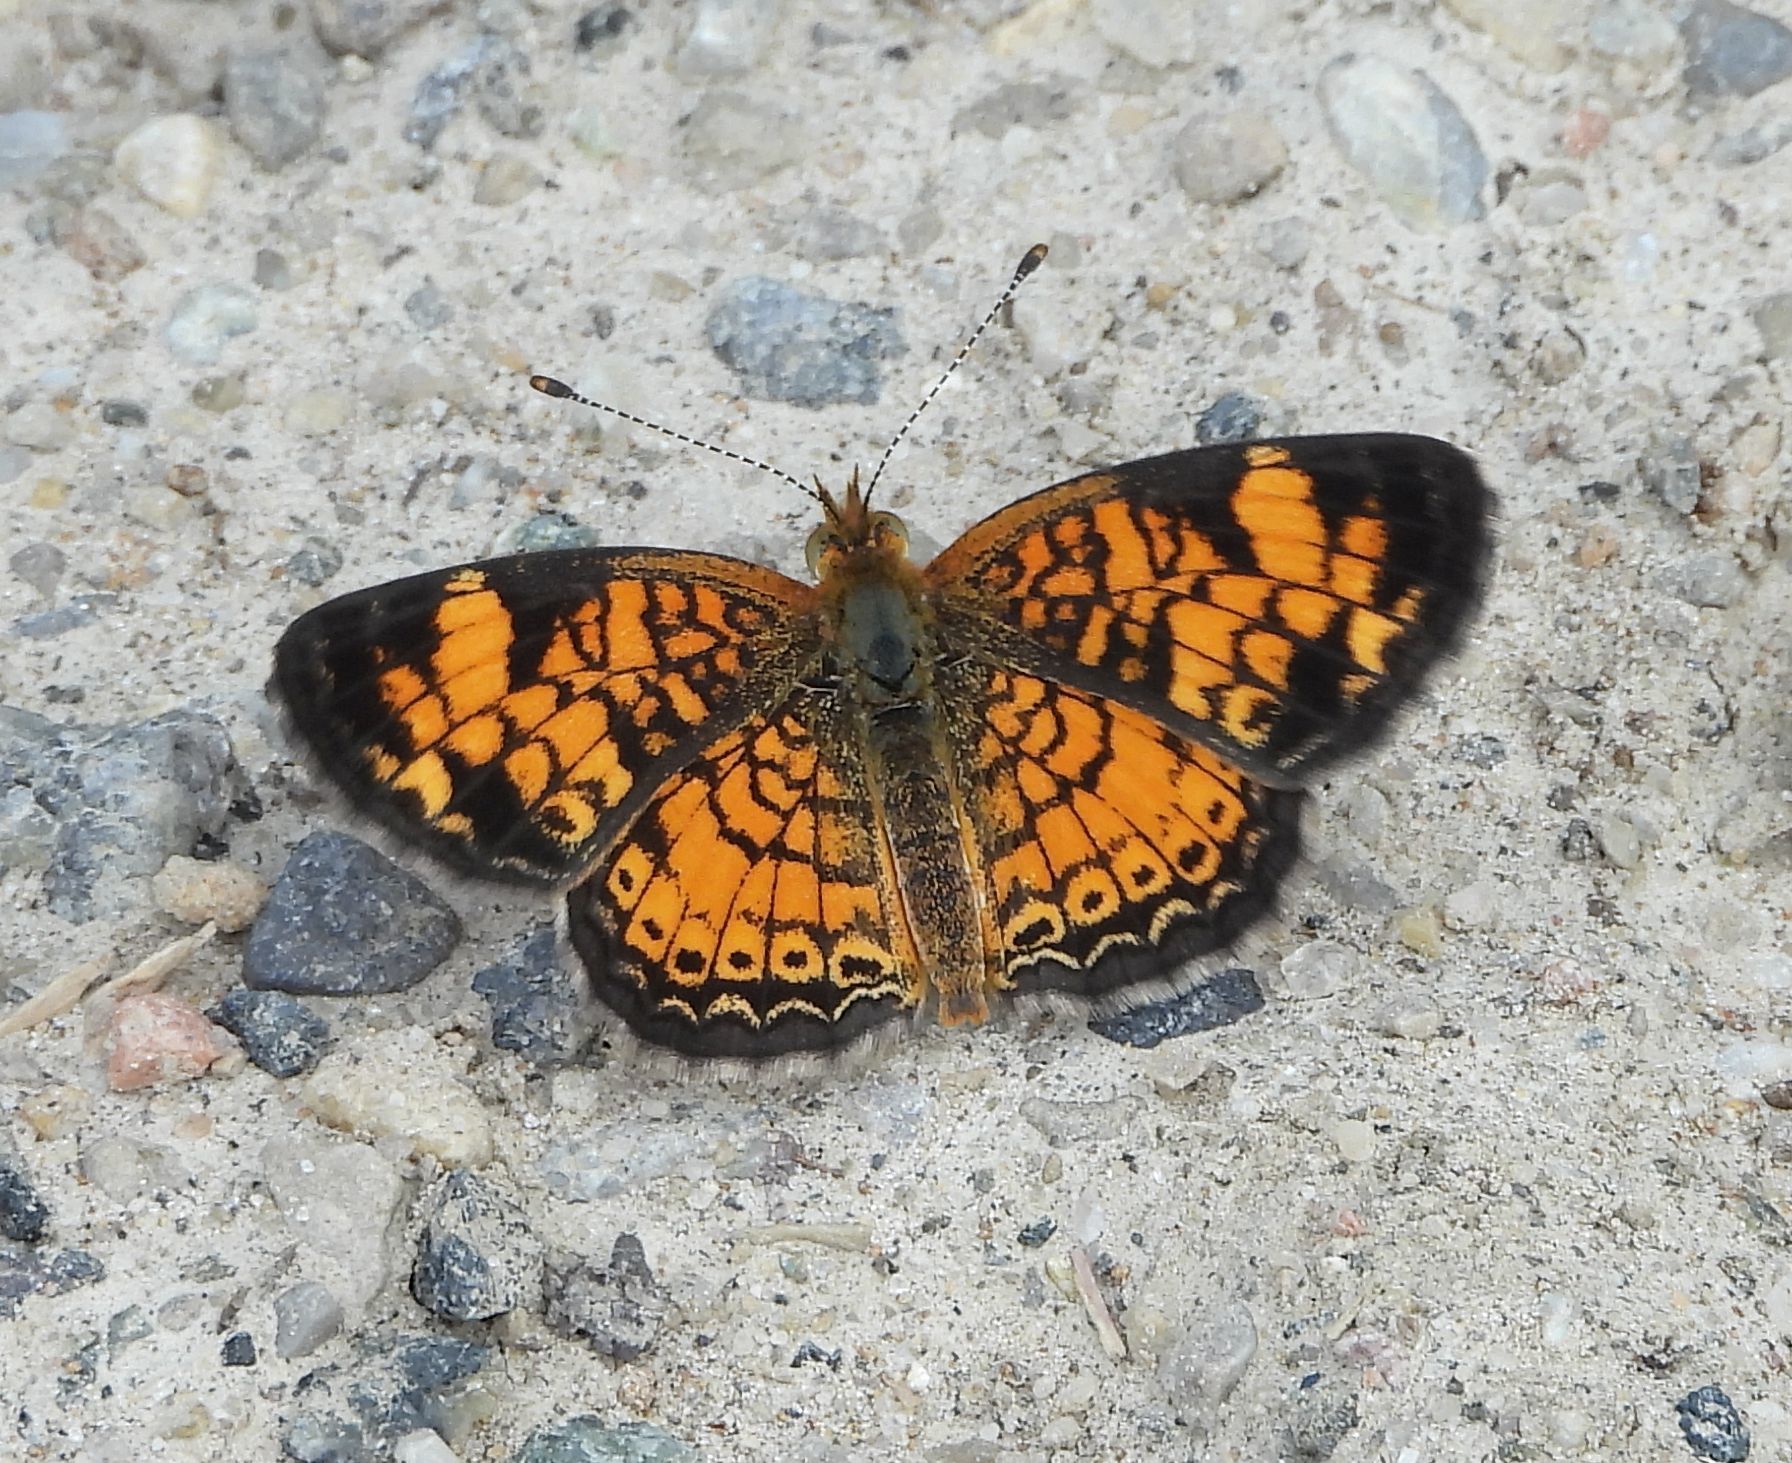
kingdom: Animalia
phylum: Arthropoda
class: Insecta
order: Lepidoptera
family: Nymphalidae
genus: Phyciodes
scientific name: Phyciodes tharos
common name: Pearl crescent
